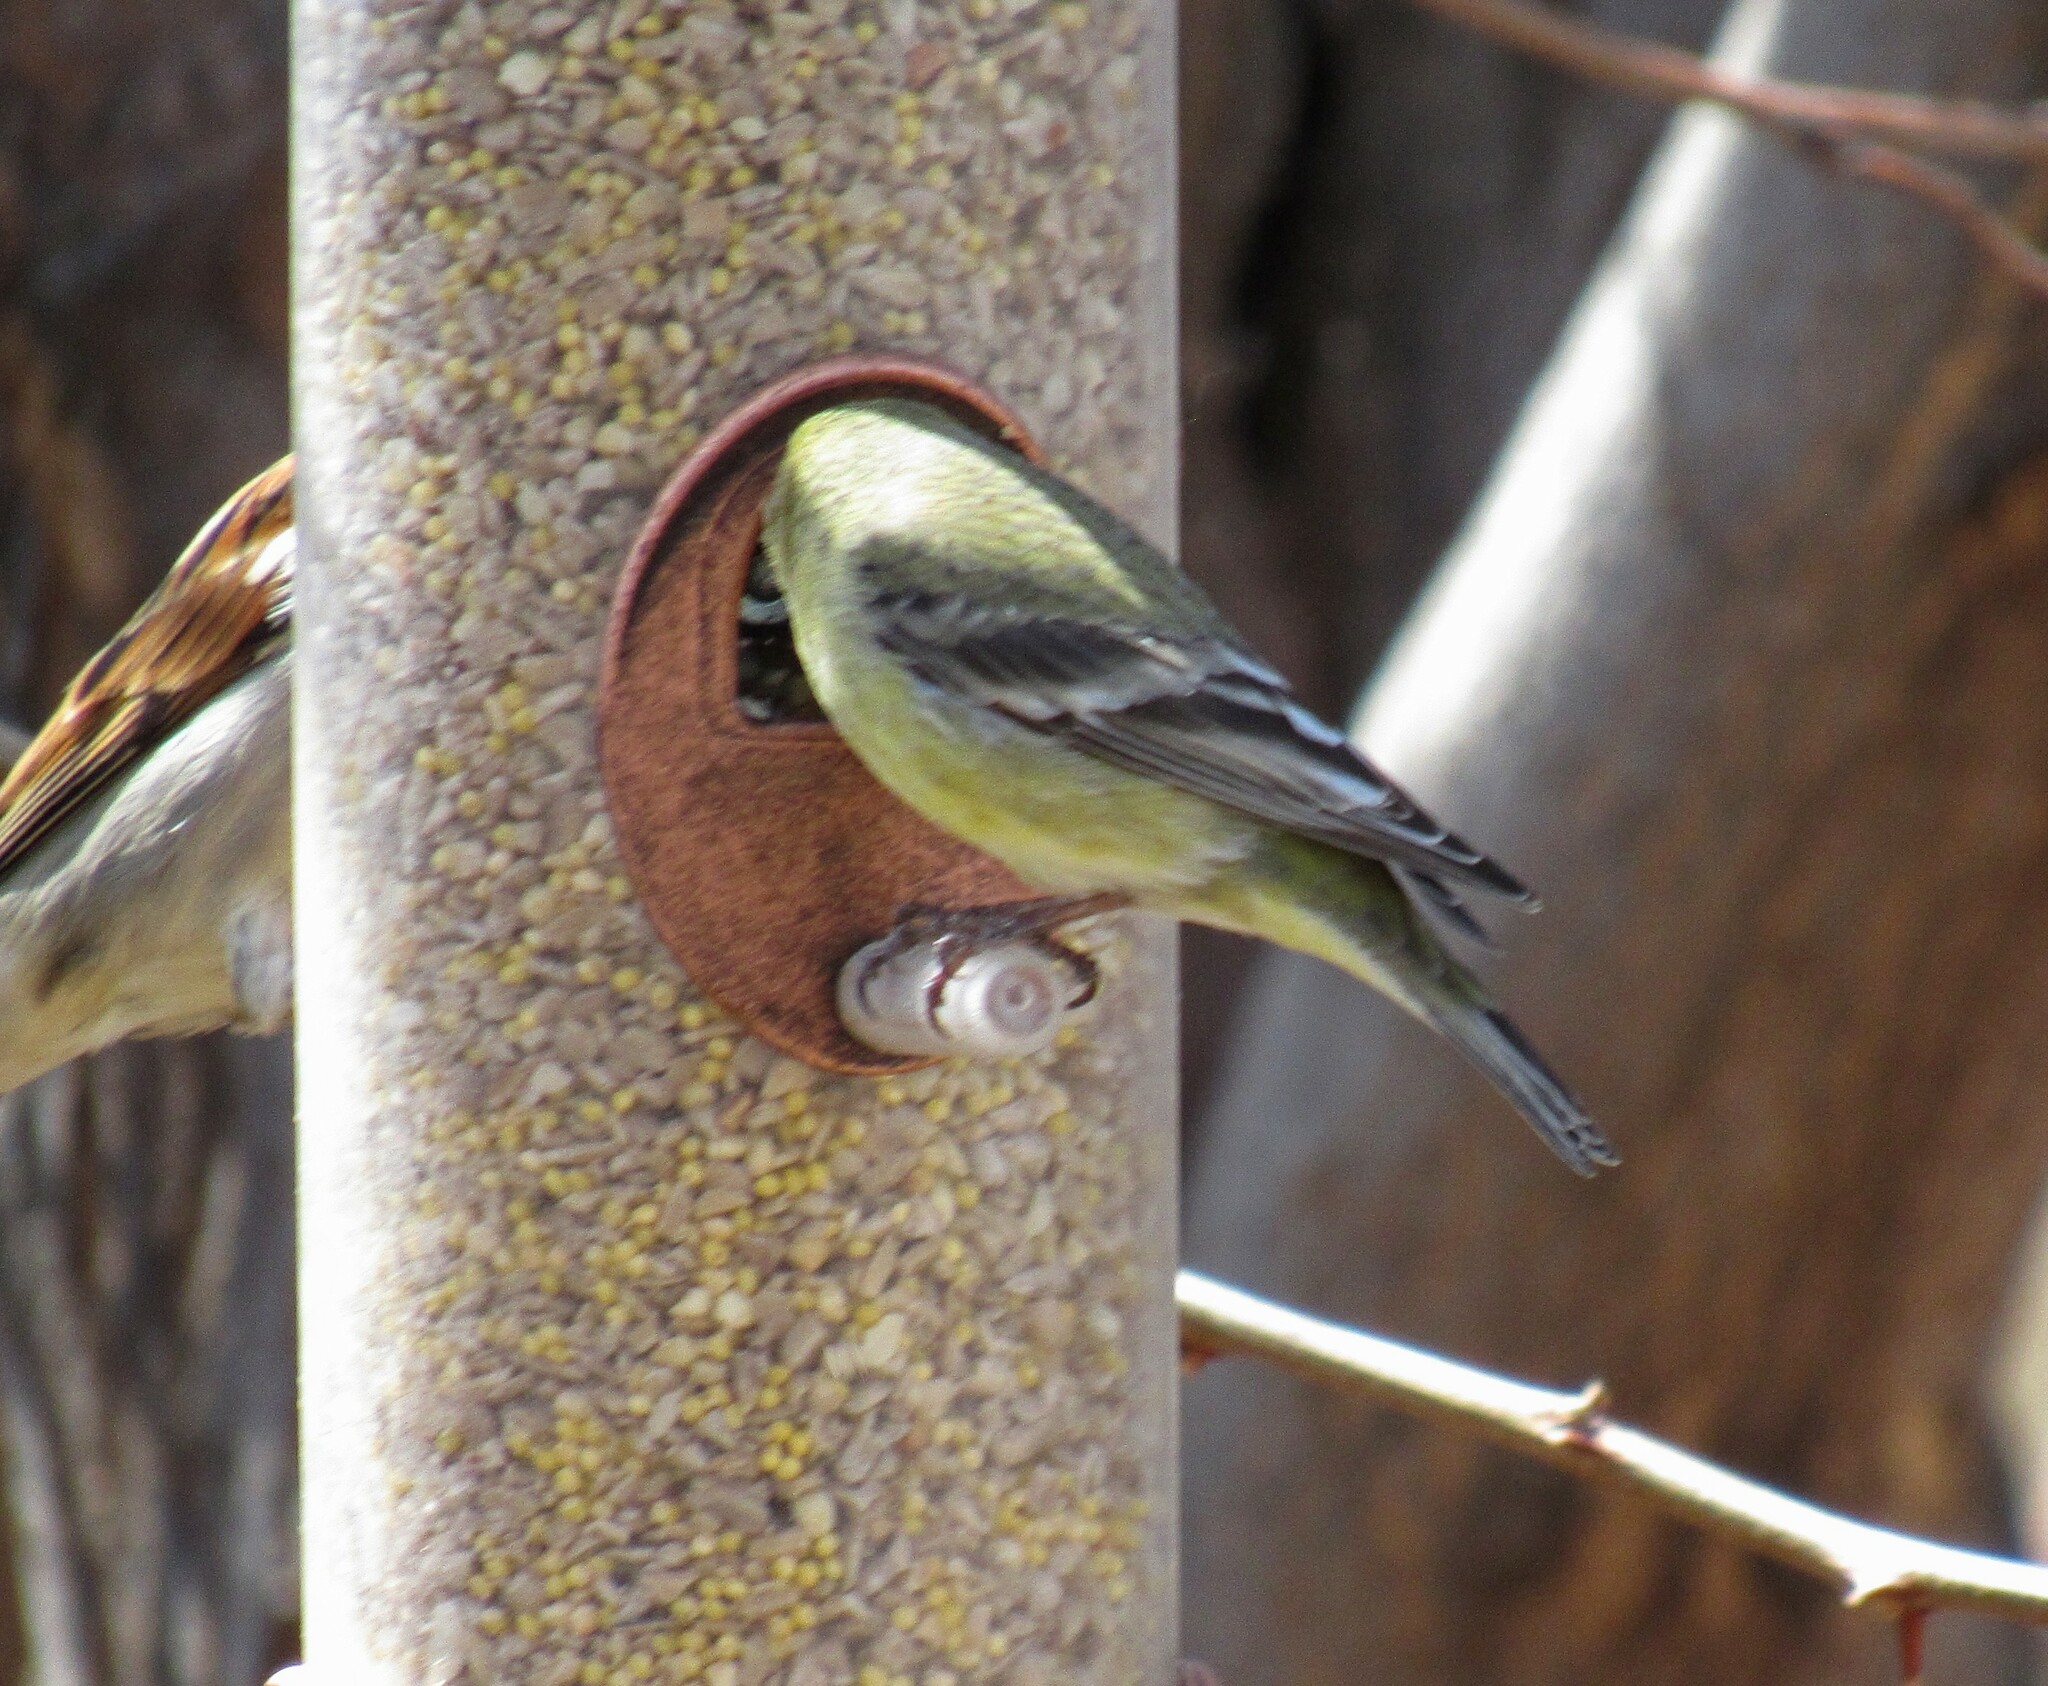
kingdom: Animalia
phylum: Chordata
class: Aves
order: Passeriformes
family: Fringillidae
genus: Spinus
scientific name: Spinus psaltria
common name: Lesser goldfinch
